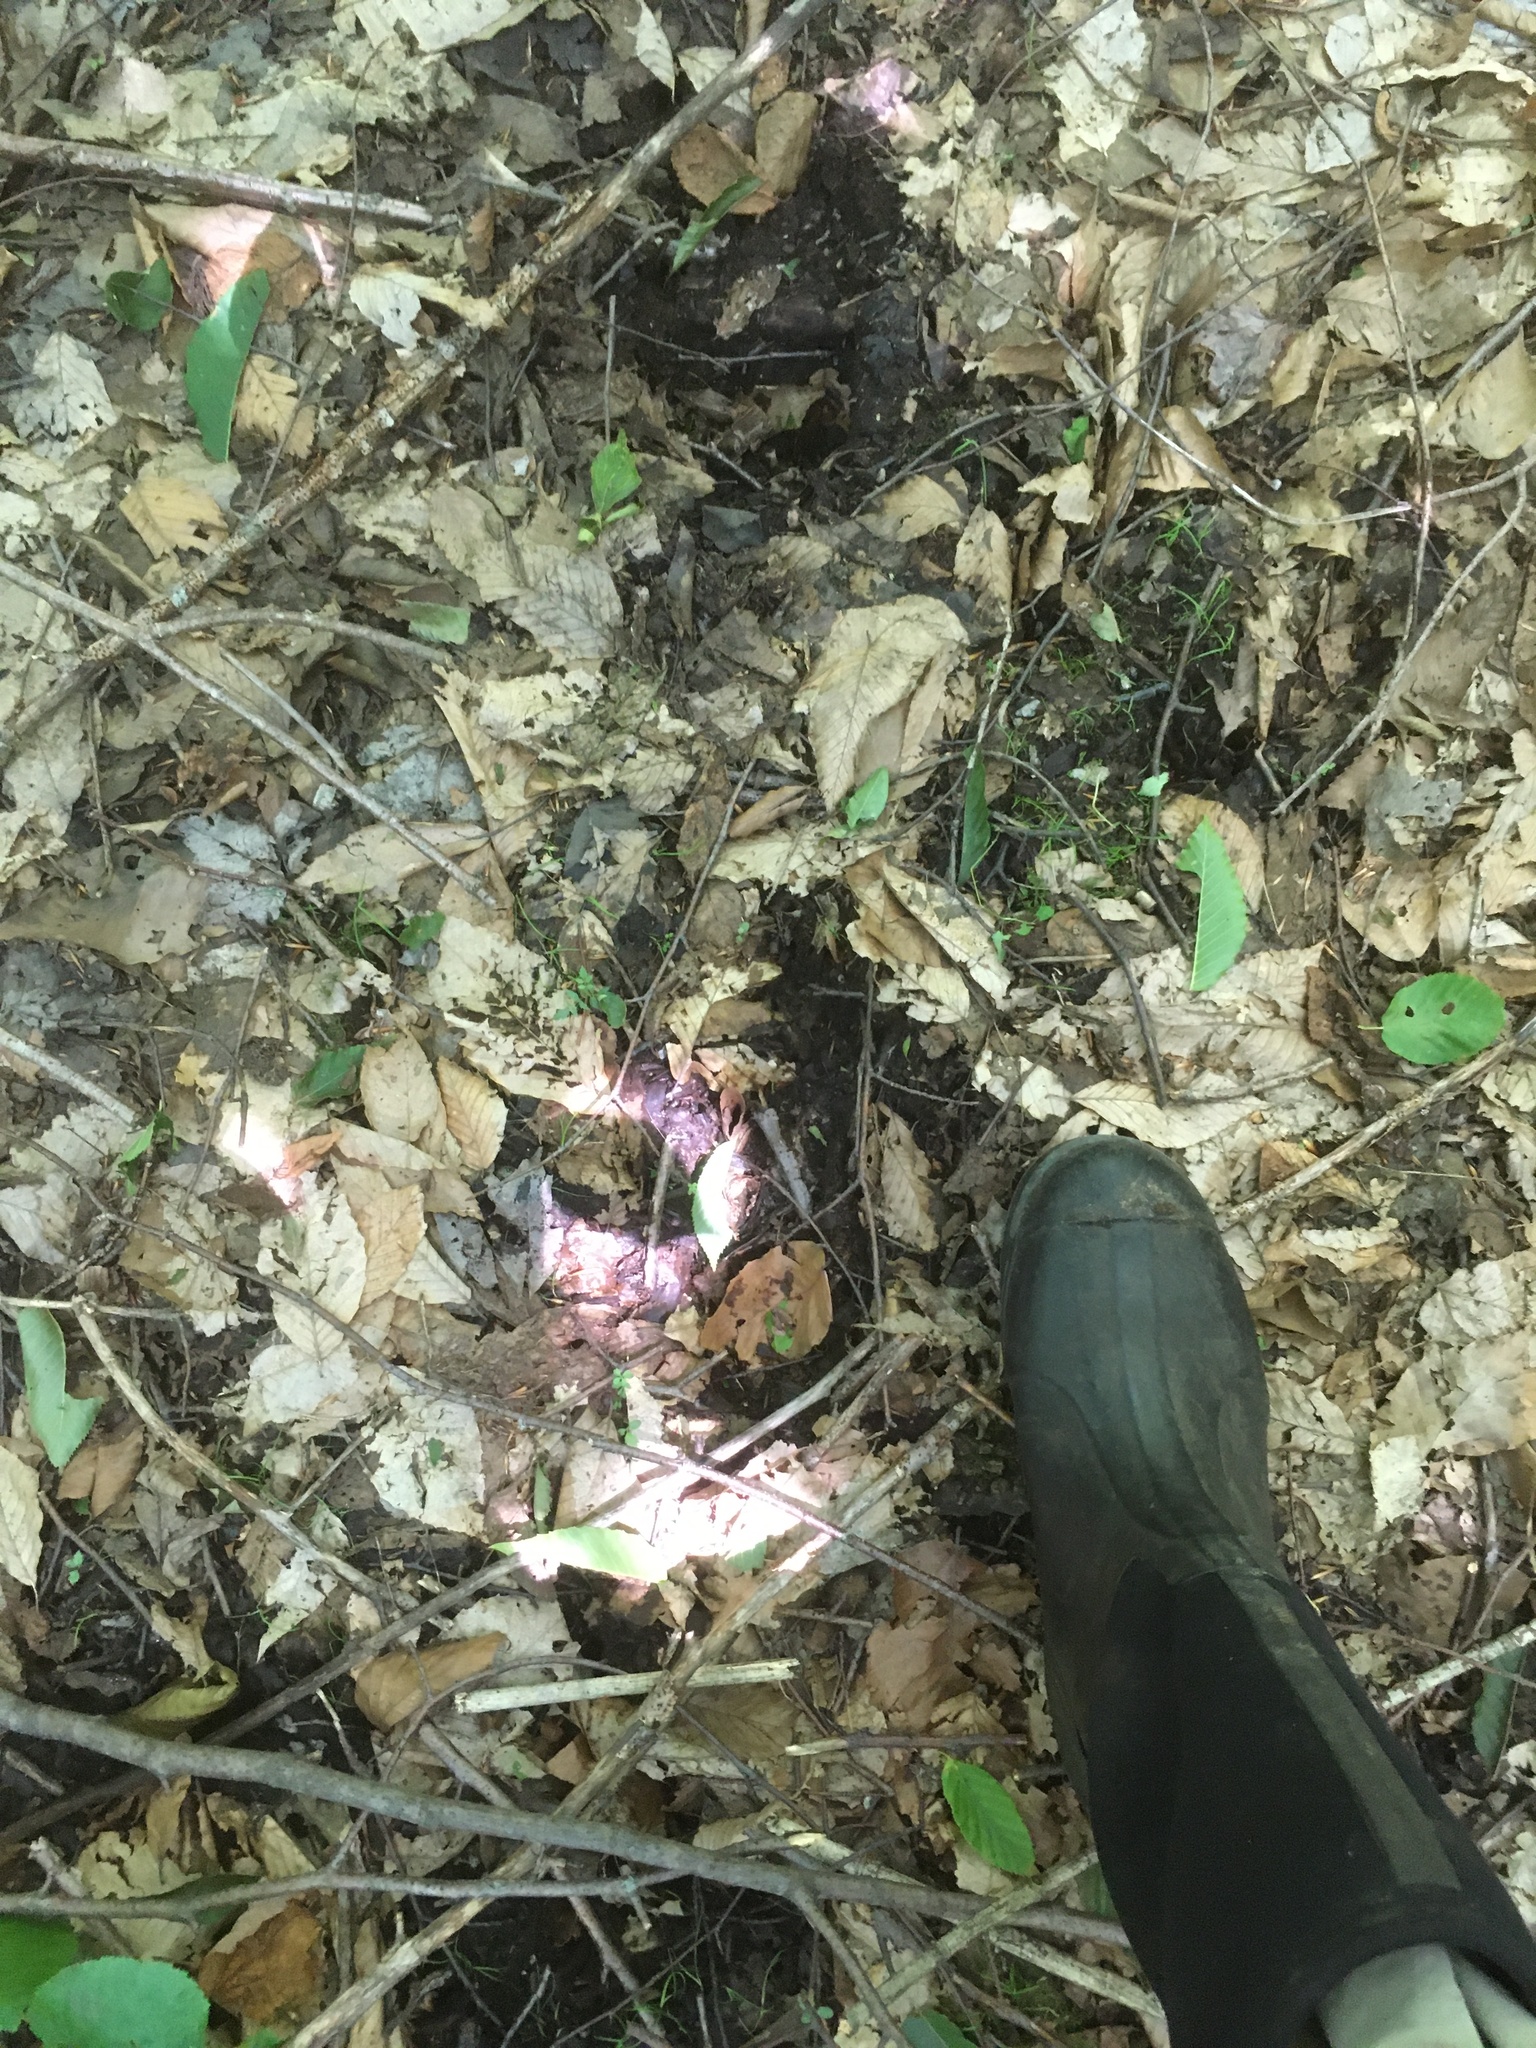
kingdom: Animalia
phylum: Chordata
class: Mammalia
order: Artiodactyla
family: Cervidae
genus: Alces
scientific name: Alces alces
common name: Moose
